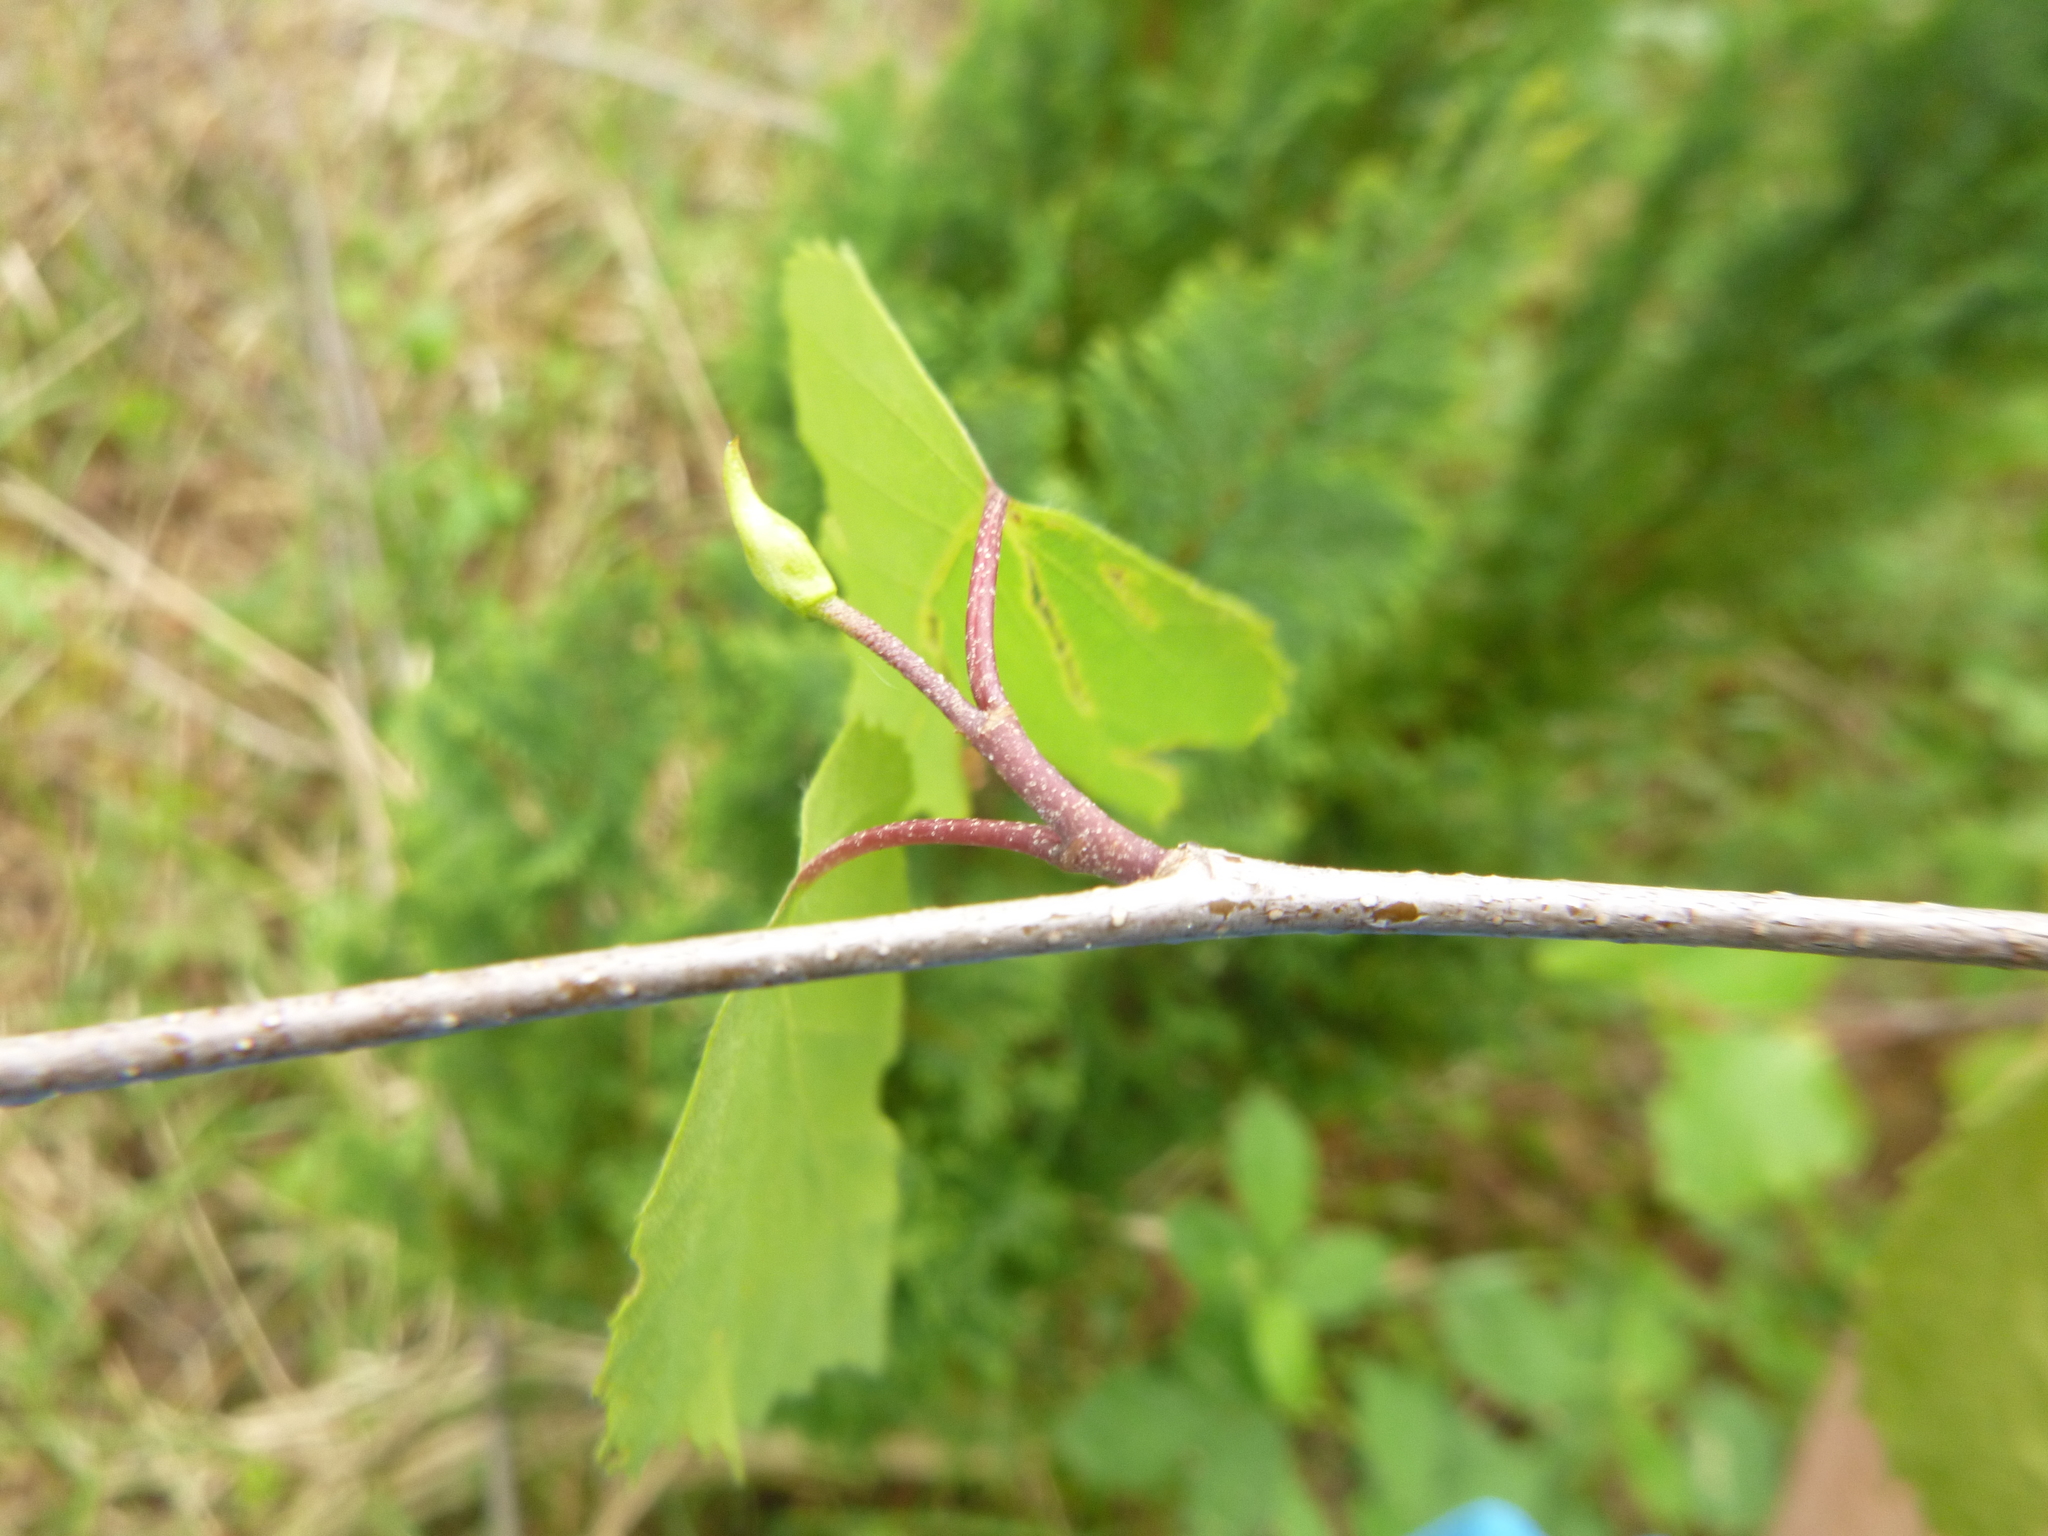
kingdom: Plantae
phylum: Tracheophyta
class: Magnoliopsida
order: Fagales
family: Betulaceae
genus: Betula
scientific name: Betula pendula
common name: Silver birch
